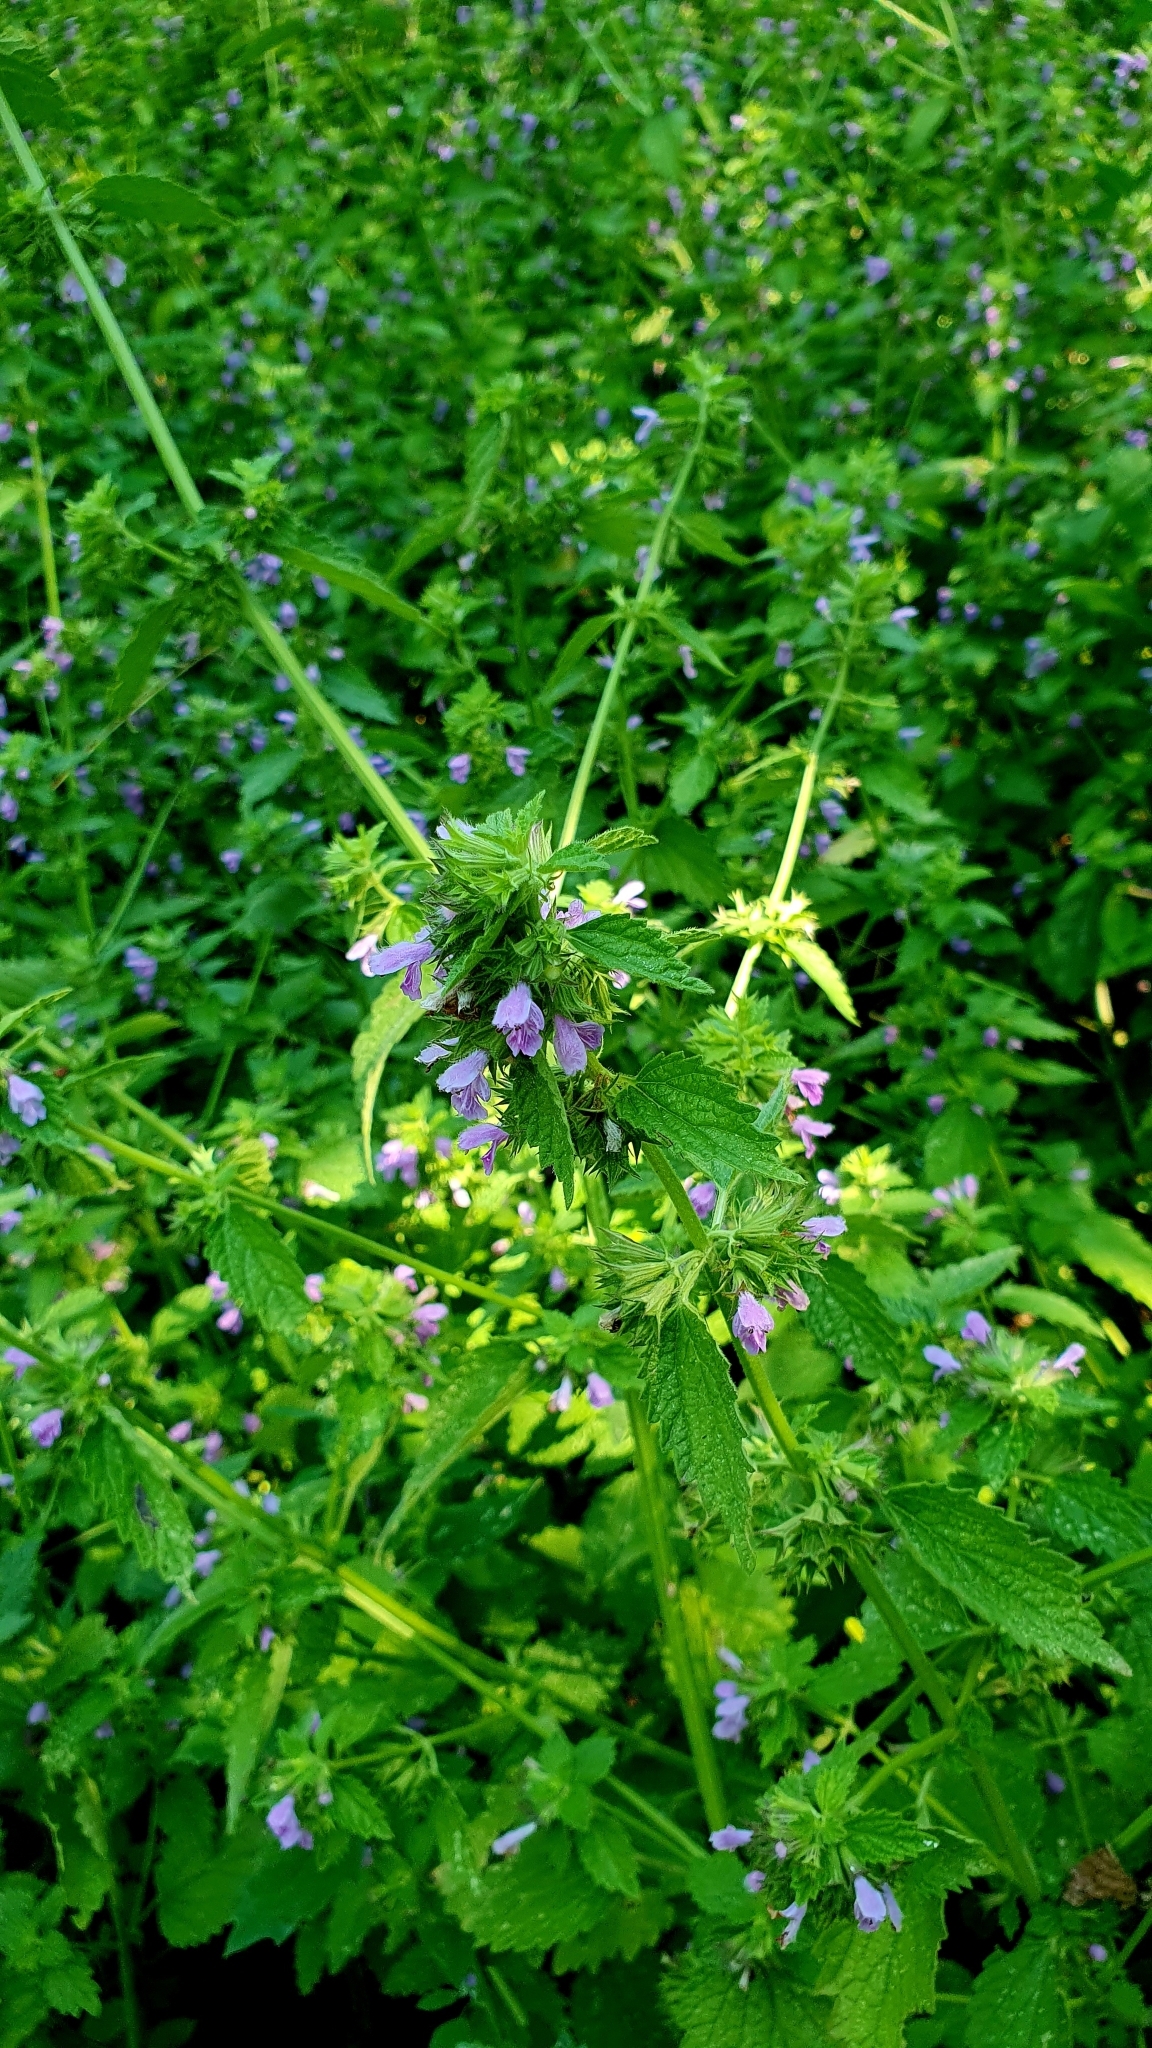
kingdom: Plantae
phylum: Tracheophyta
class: Magnoliopsida
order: Lamiales
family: Lamiaceae
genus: Ballota
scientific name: Ballota nigra
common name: Black horehound
